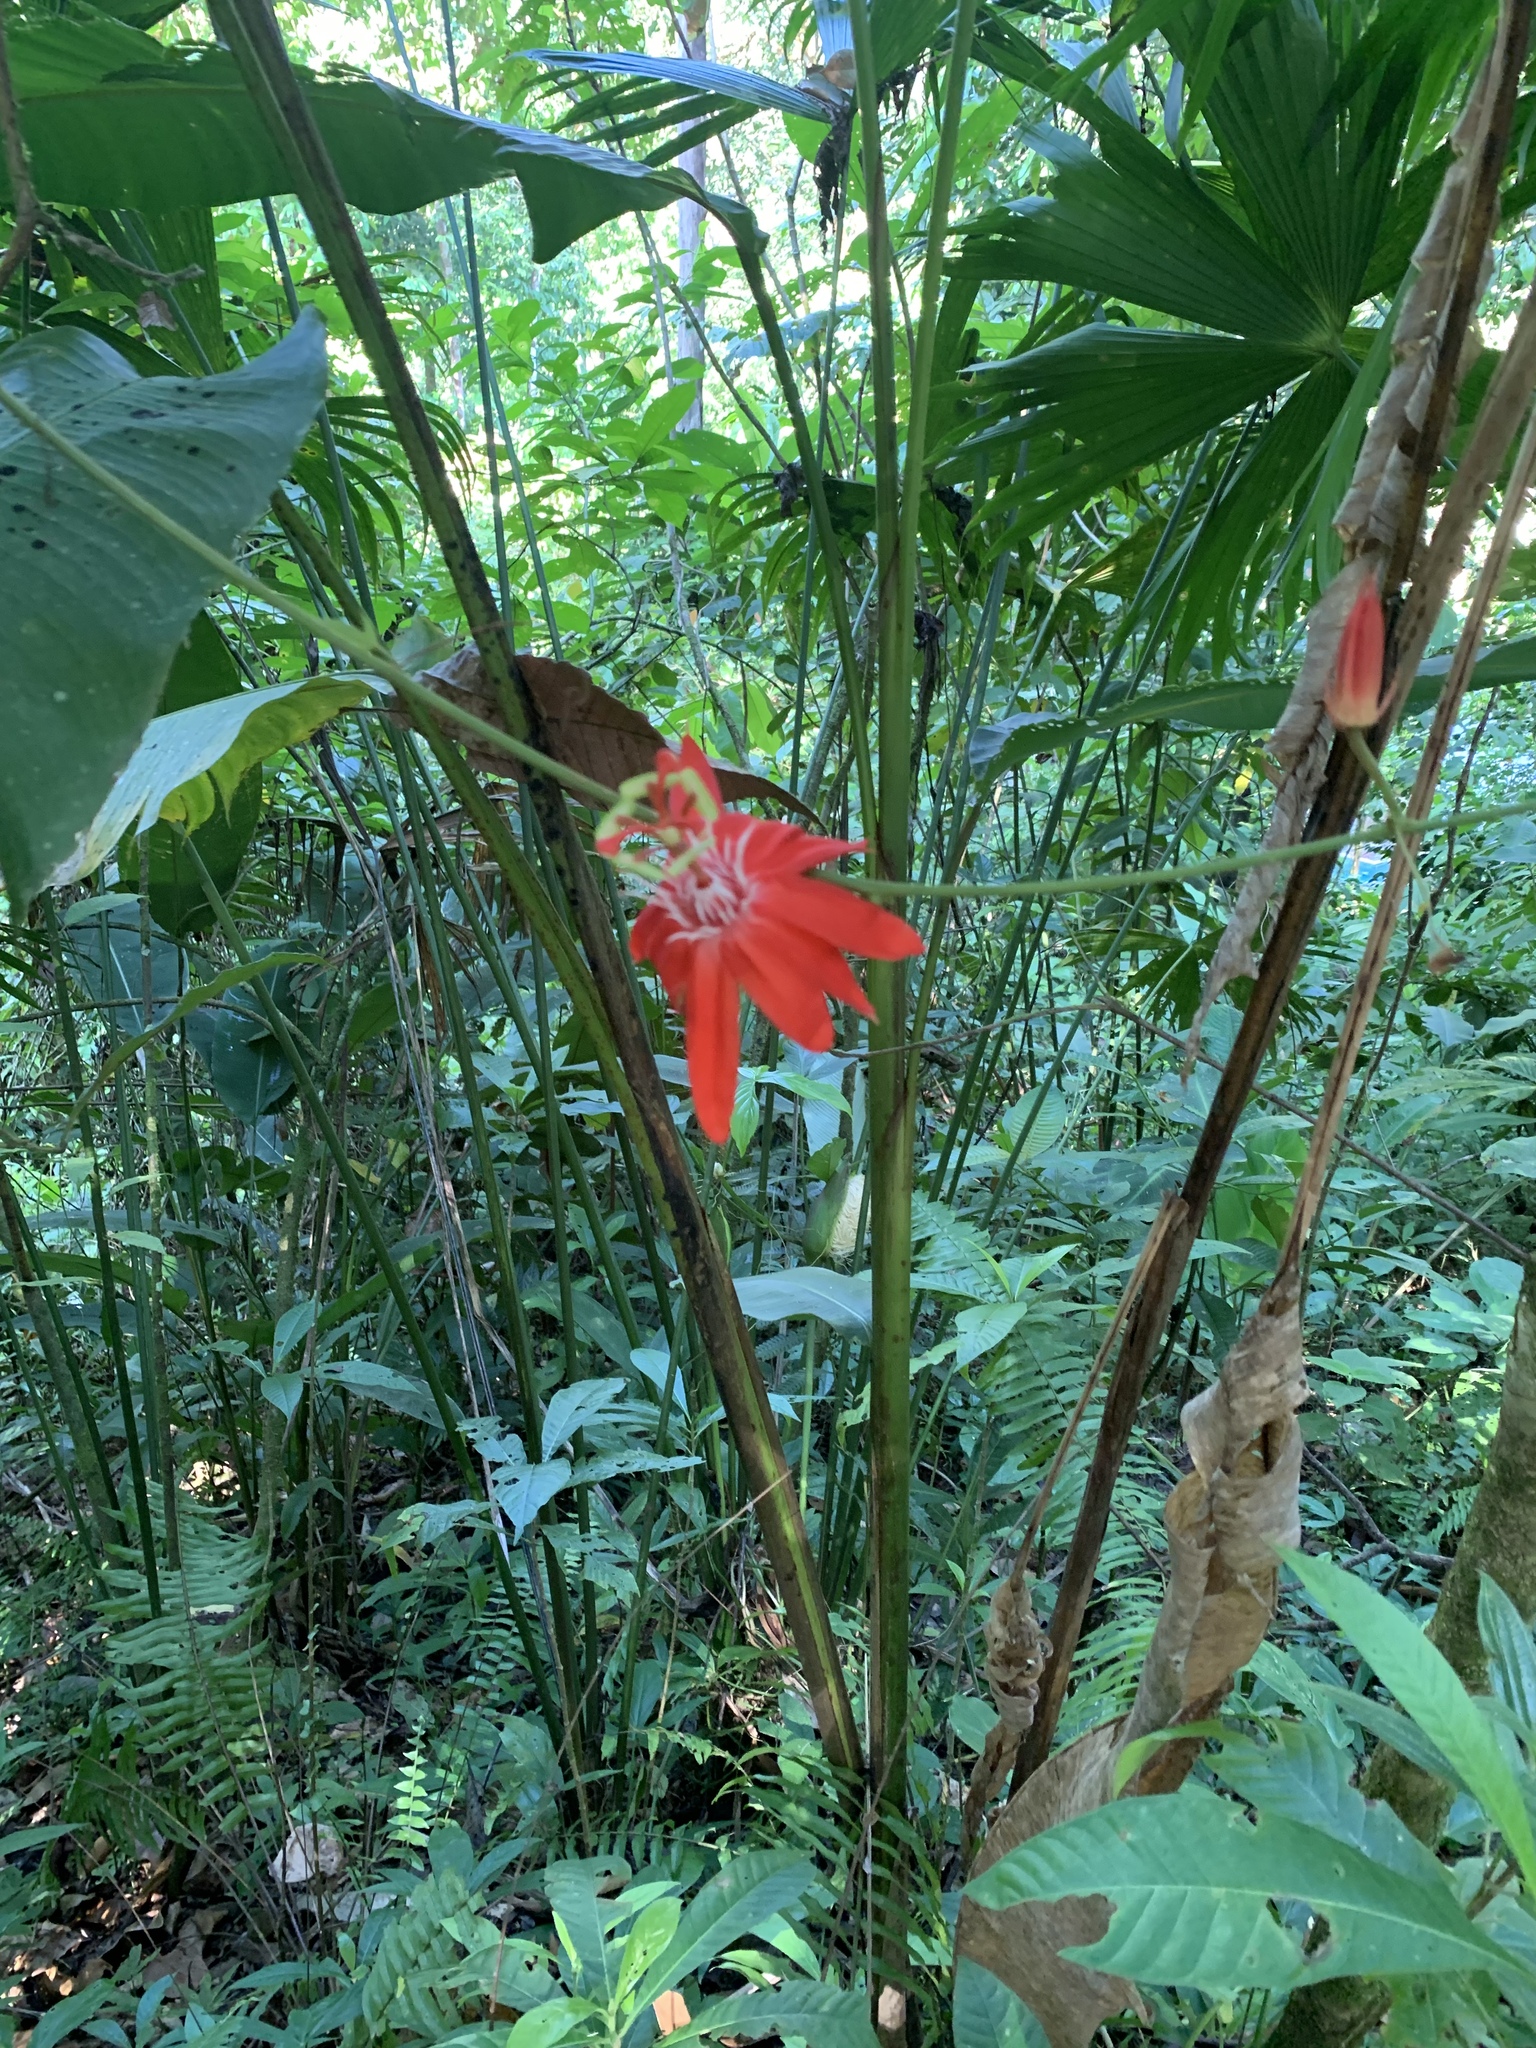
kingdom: Plantae
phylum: Tracheophyta
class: Magnoliopsida
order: Malpighiales
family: Passifloraceae
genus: Passiflora
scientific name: Passiflora vitifolia
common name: Perfumed passionflower
